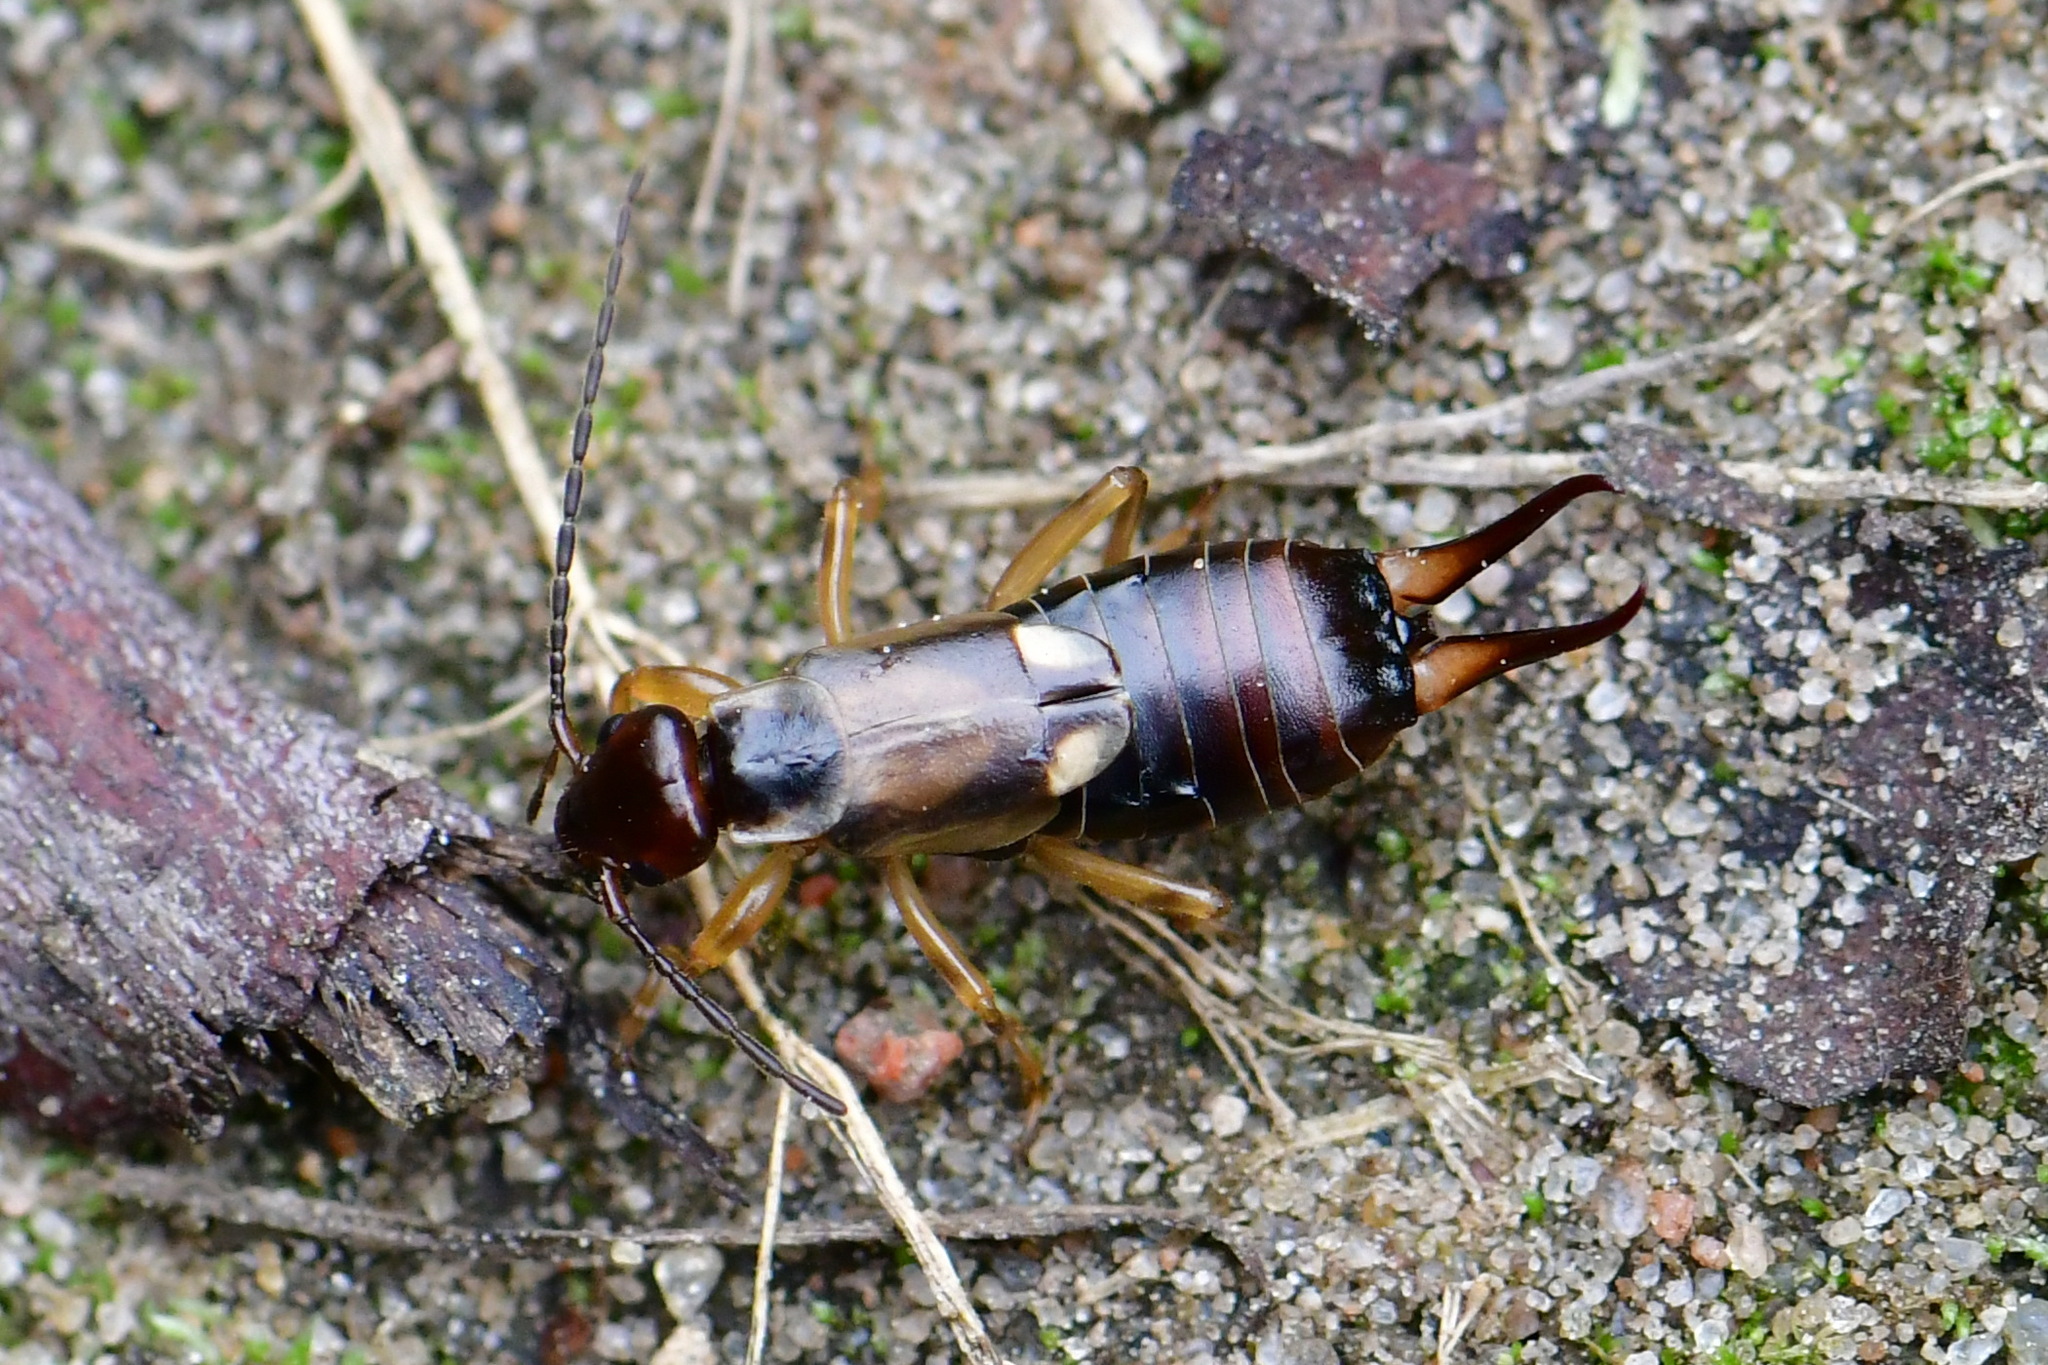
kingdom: Animalia
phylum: Arthropoda
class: Insecta
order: Dermaptera
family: Forficulidae
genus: Forficula
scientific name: Forficula
